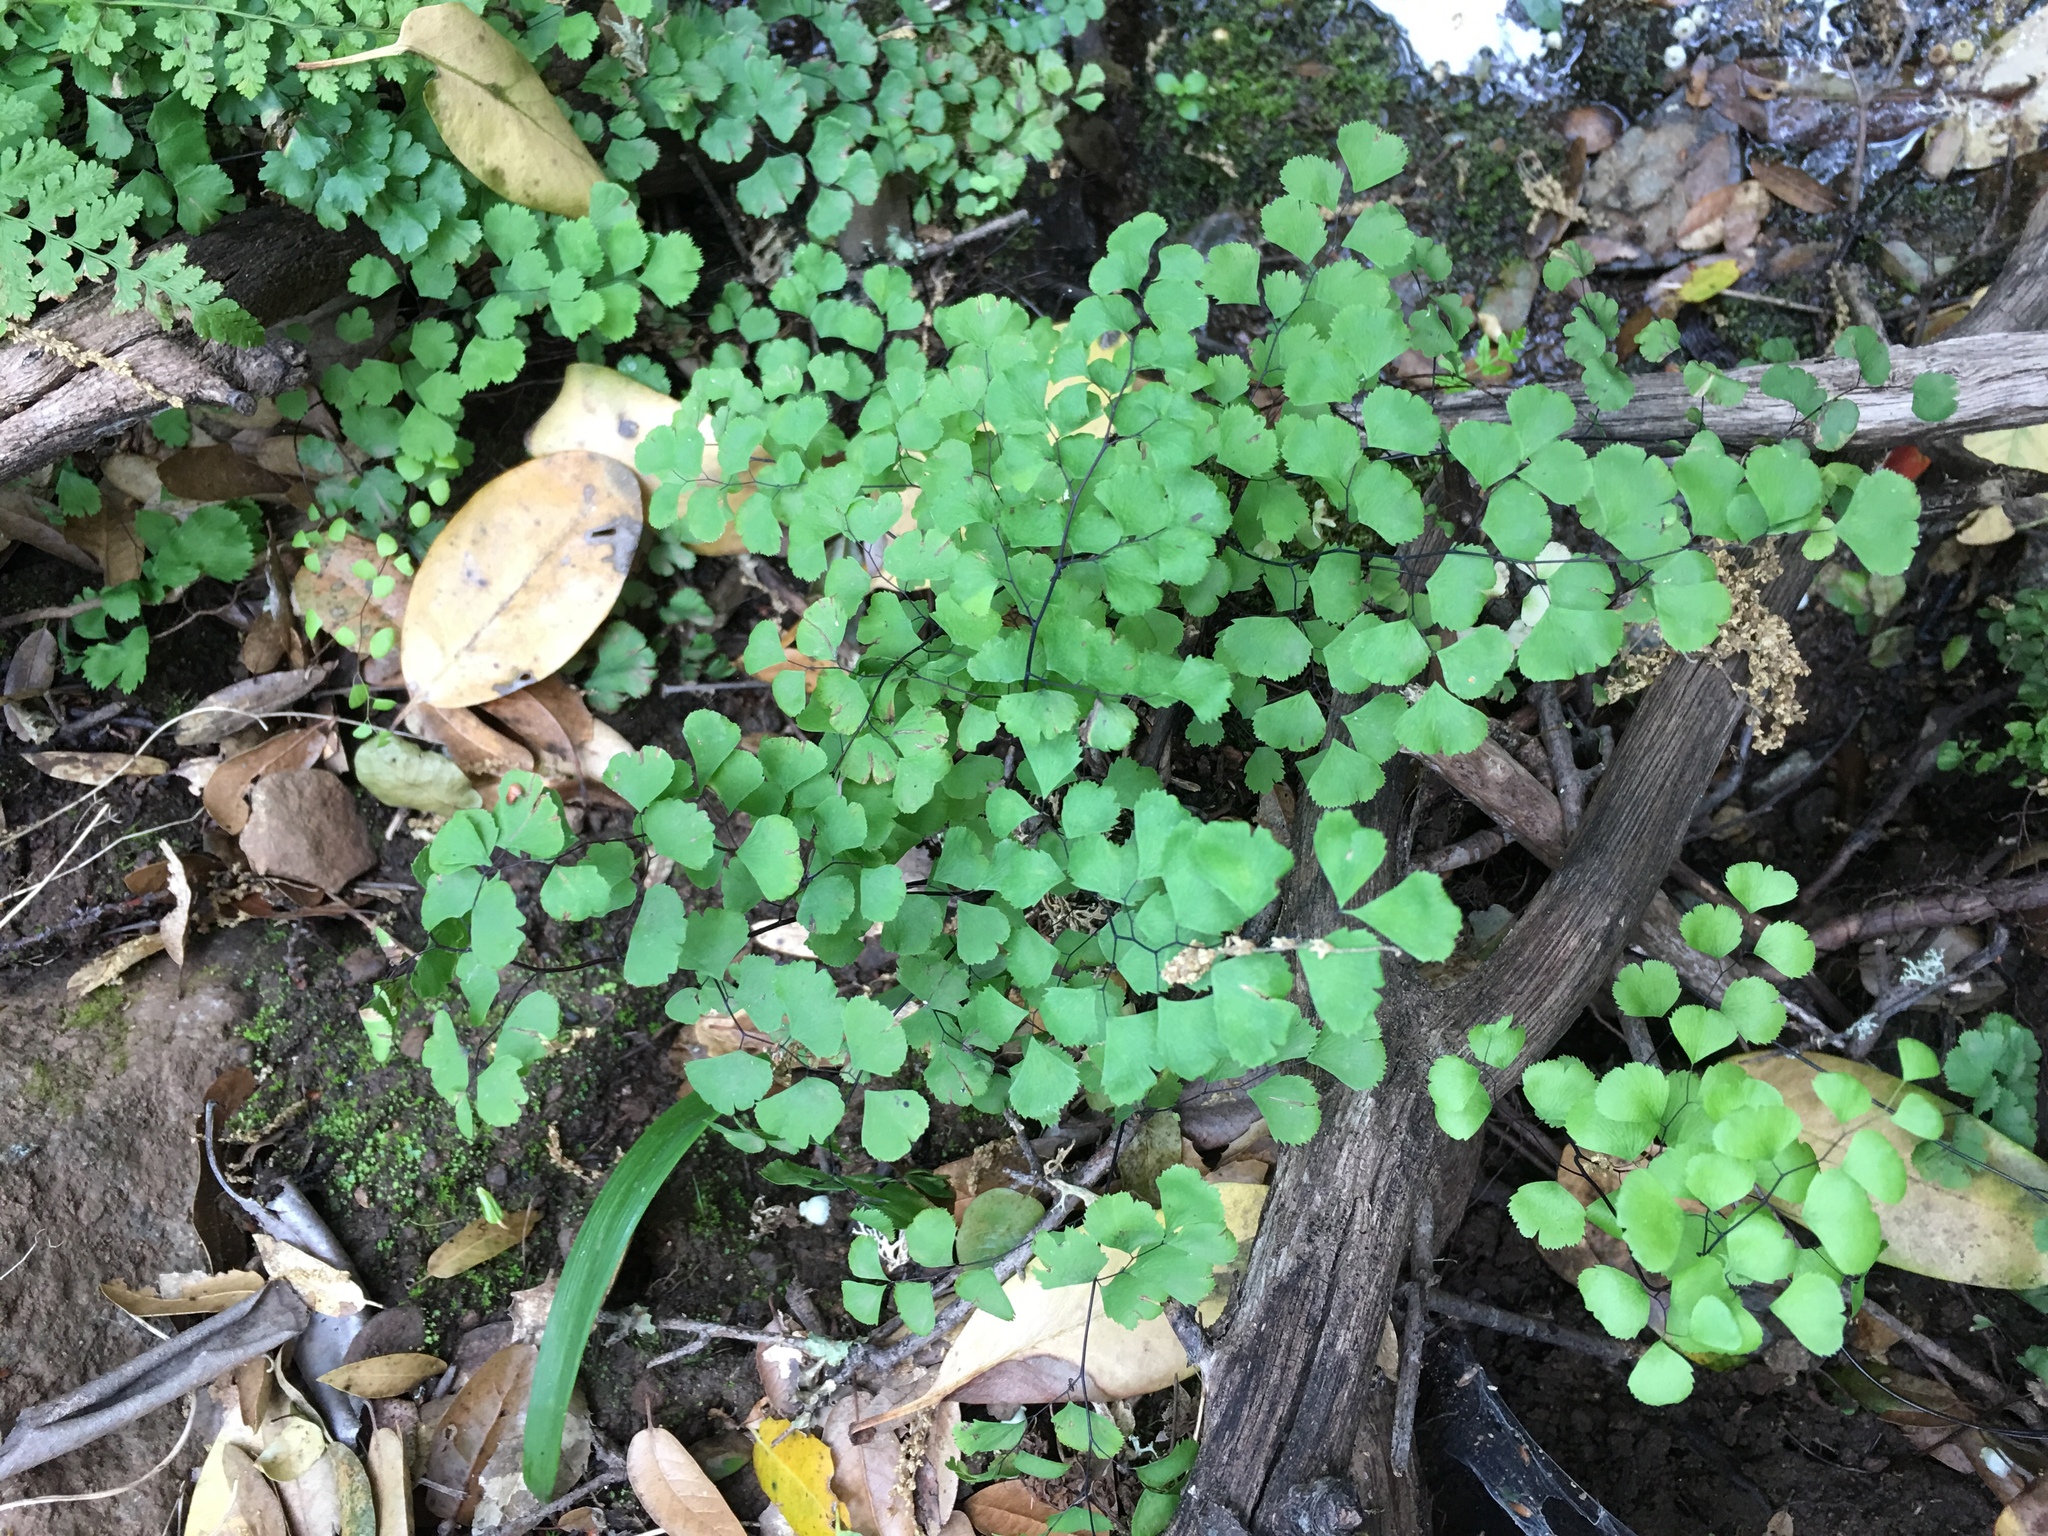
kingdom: Plantae
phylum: Tracheophyta
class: Polypodiopsida
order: Polypodiales
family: Pteridaceae
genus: Adiantum
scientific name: Adiantum jordanii
